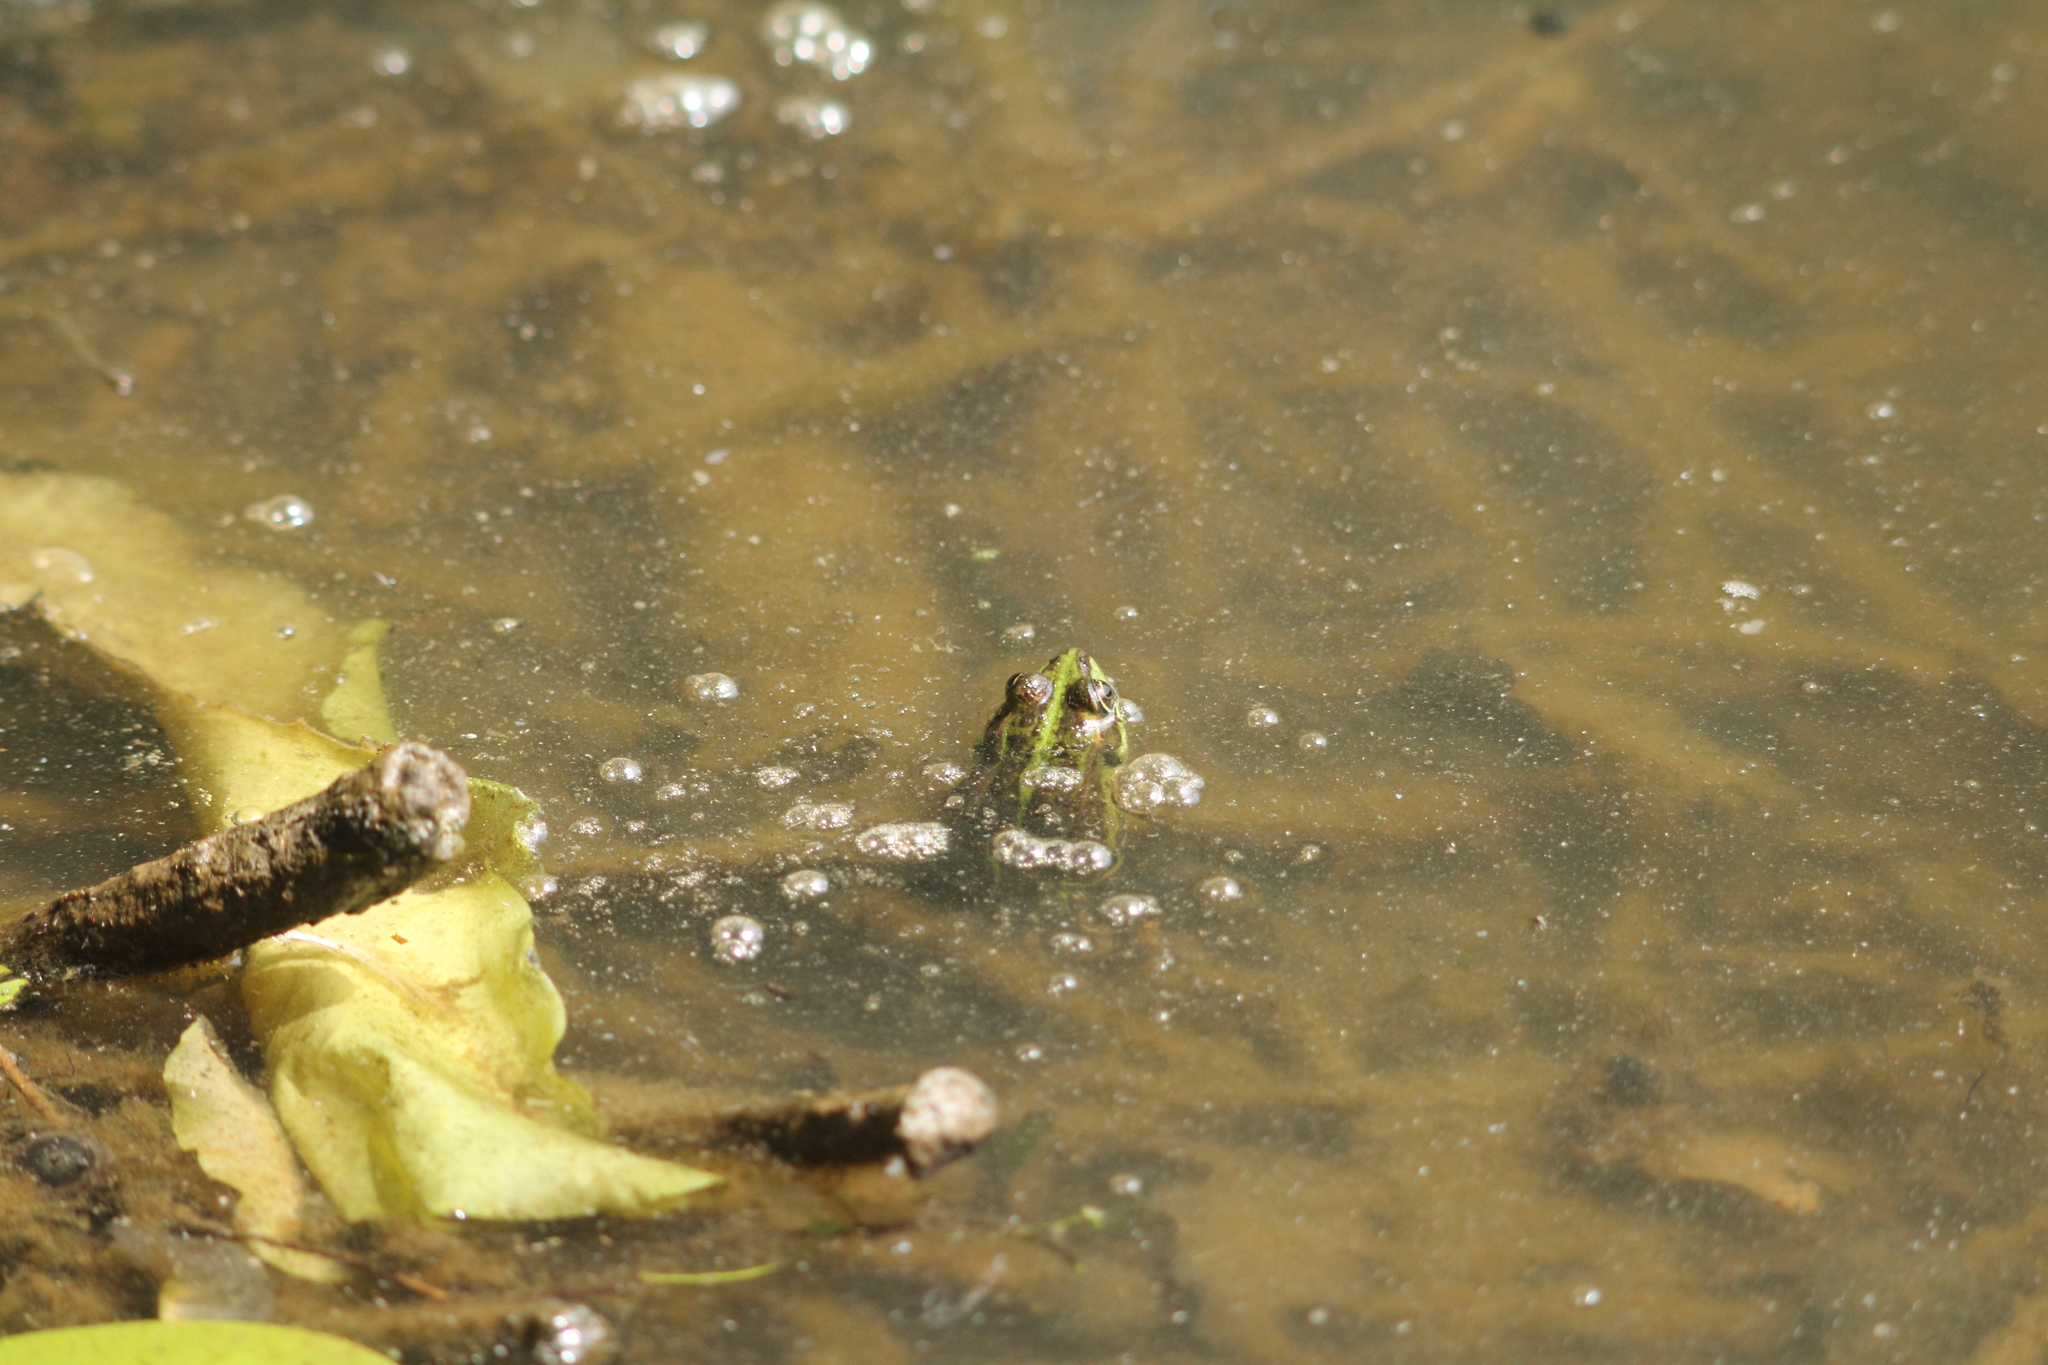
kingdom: Animalia
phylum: Chordata
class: Amphibia
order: Anura
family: Ranidae
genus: Pelophylax
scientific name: Pelophylax
